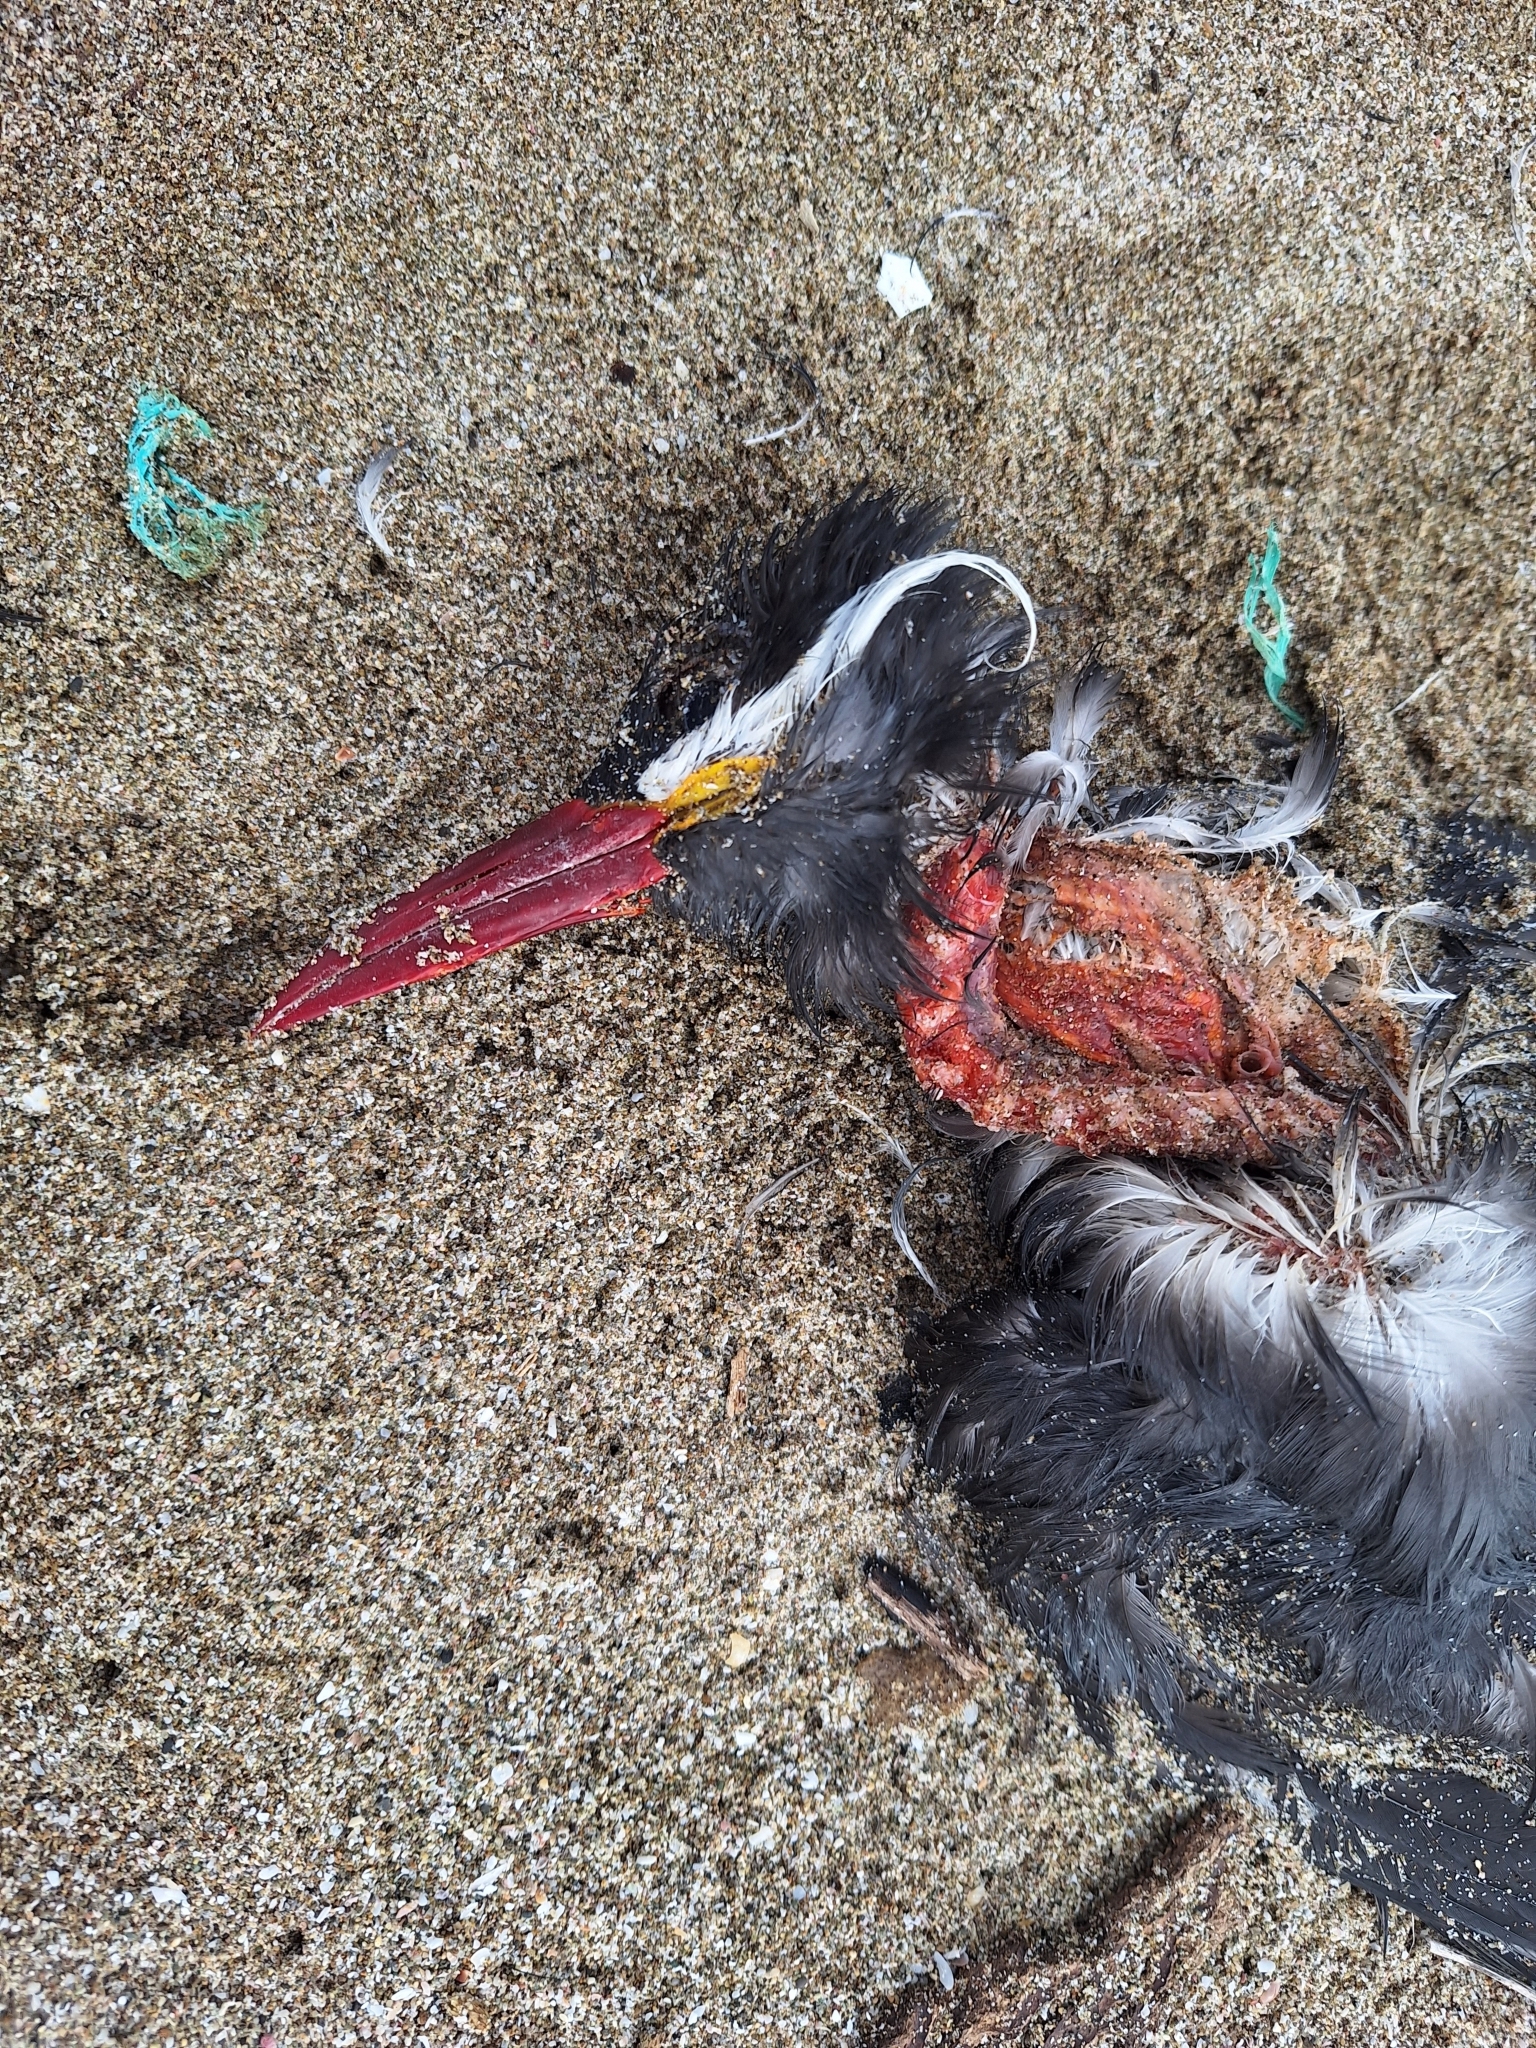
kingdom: Animalia
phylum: Chordata
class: Aves
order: Charadriiformes
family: Laridae
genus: Larosterna
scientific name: Larosterna inca
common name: Inca tern
